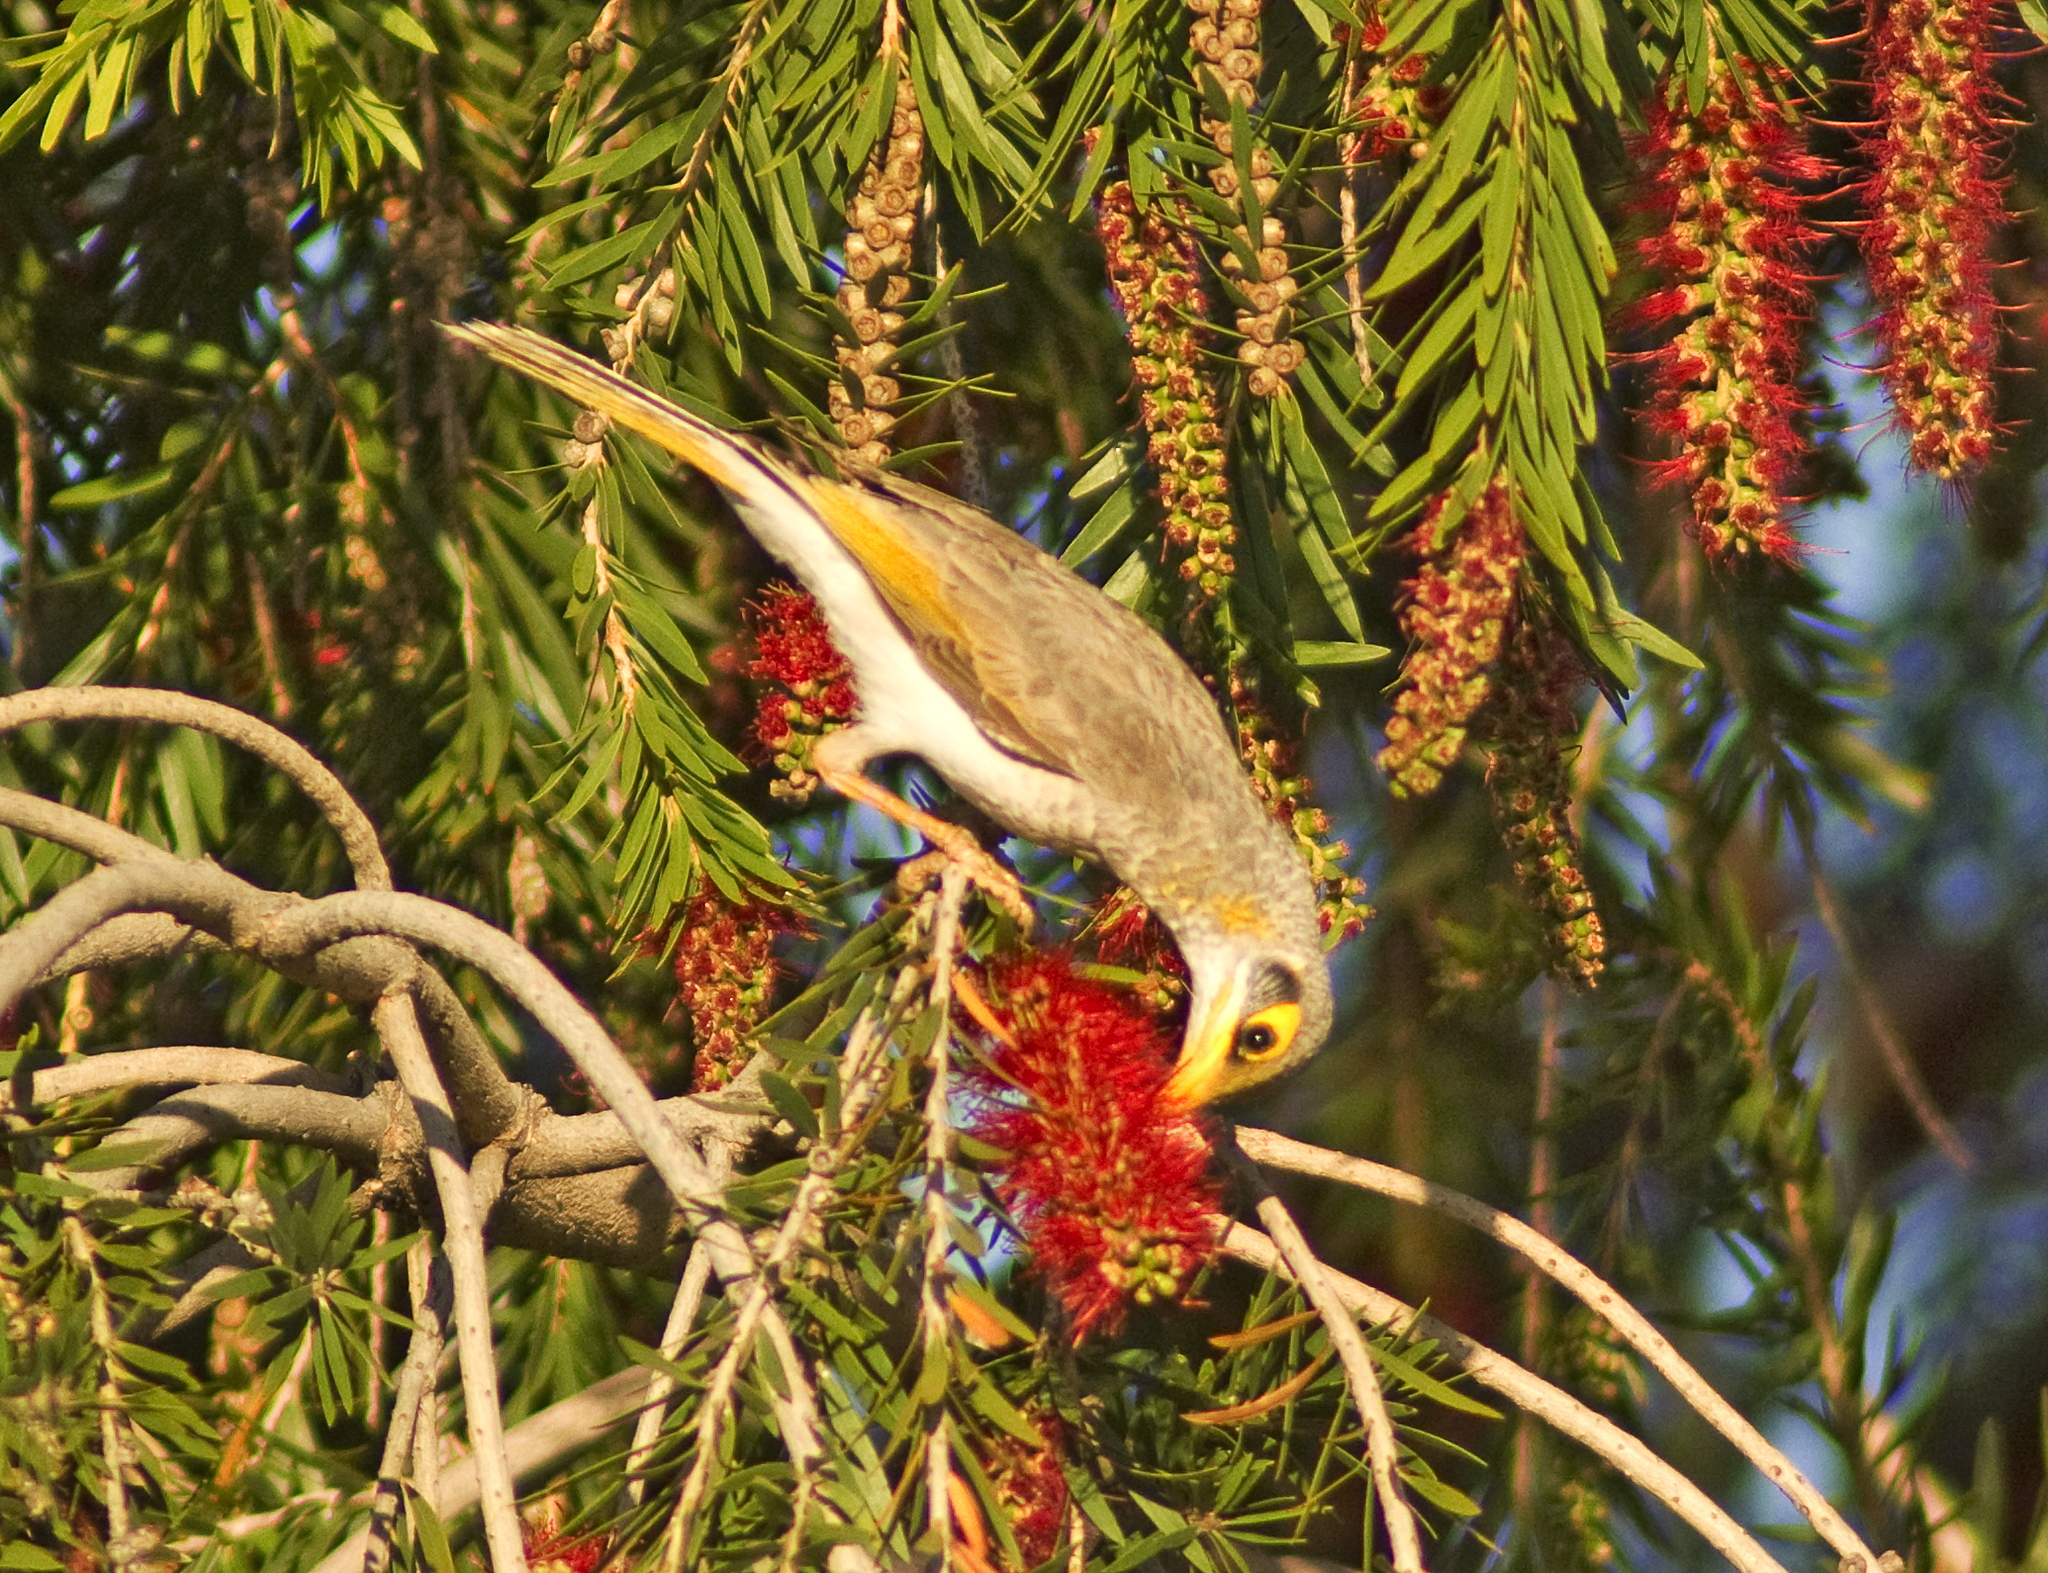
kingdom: Animalia
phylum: Chordata
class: Aves
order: Passeriformes
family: Meliphagidae
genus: Manorina
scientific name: Manorina flavigula
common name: Yellow-throated miner
